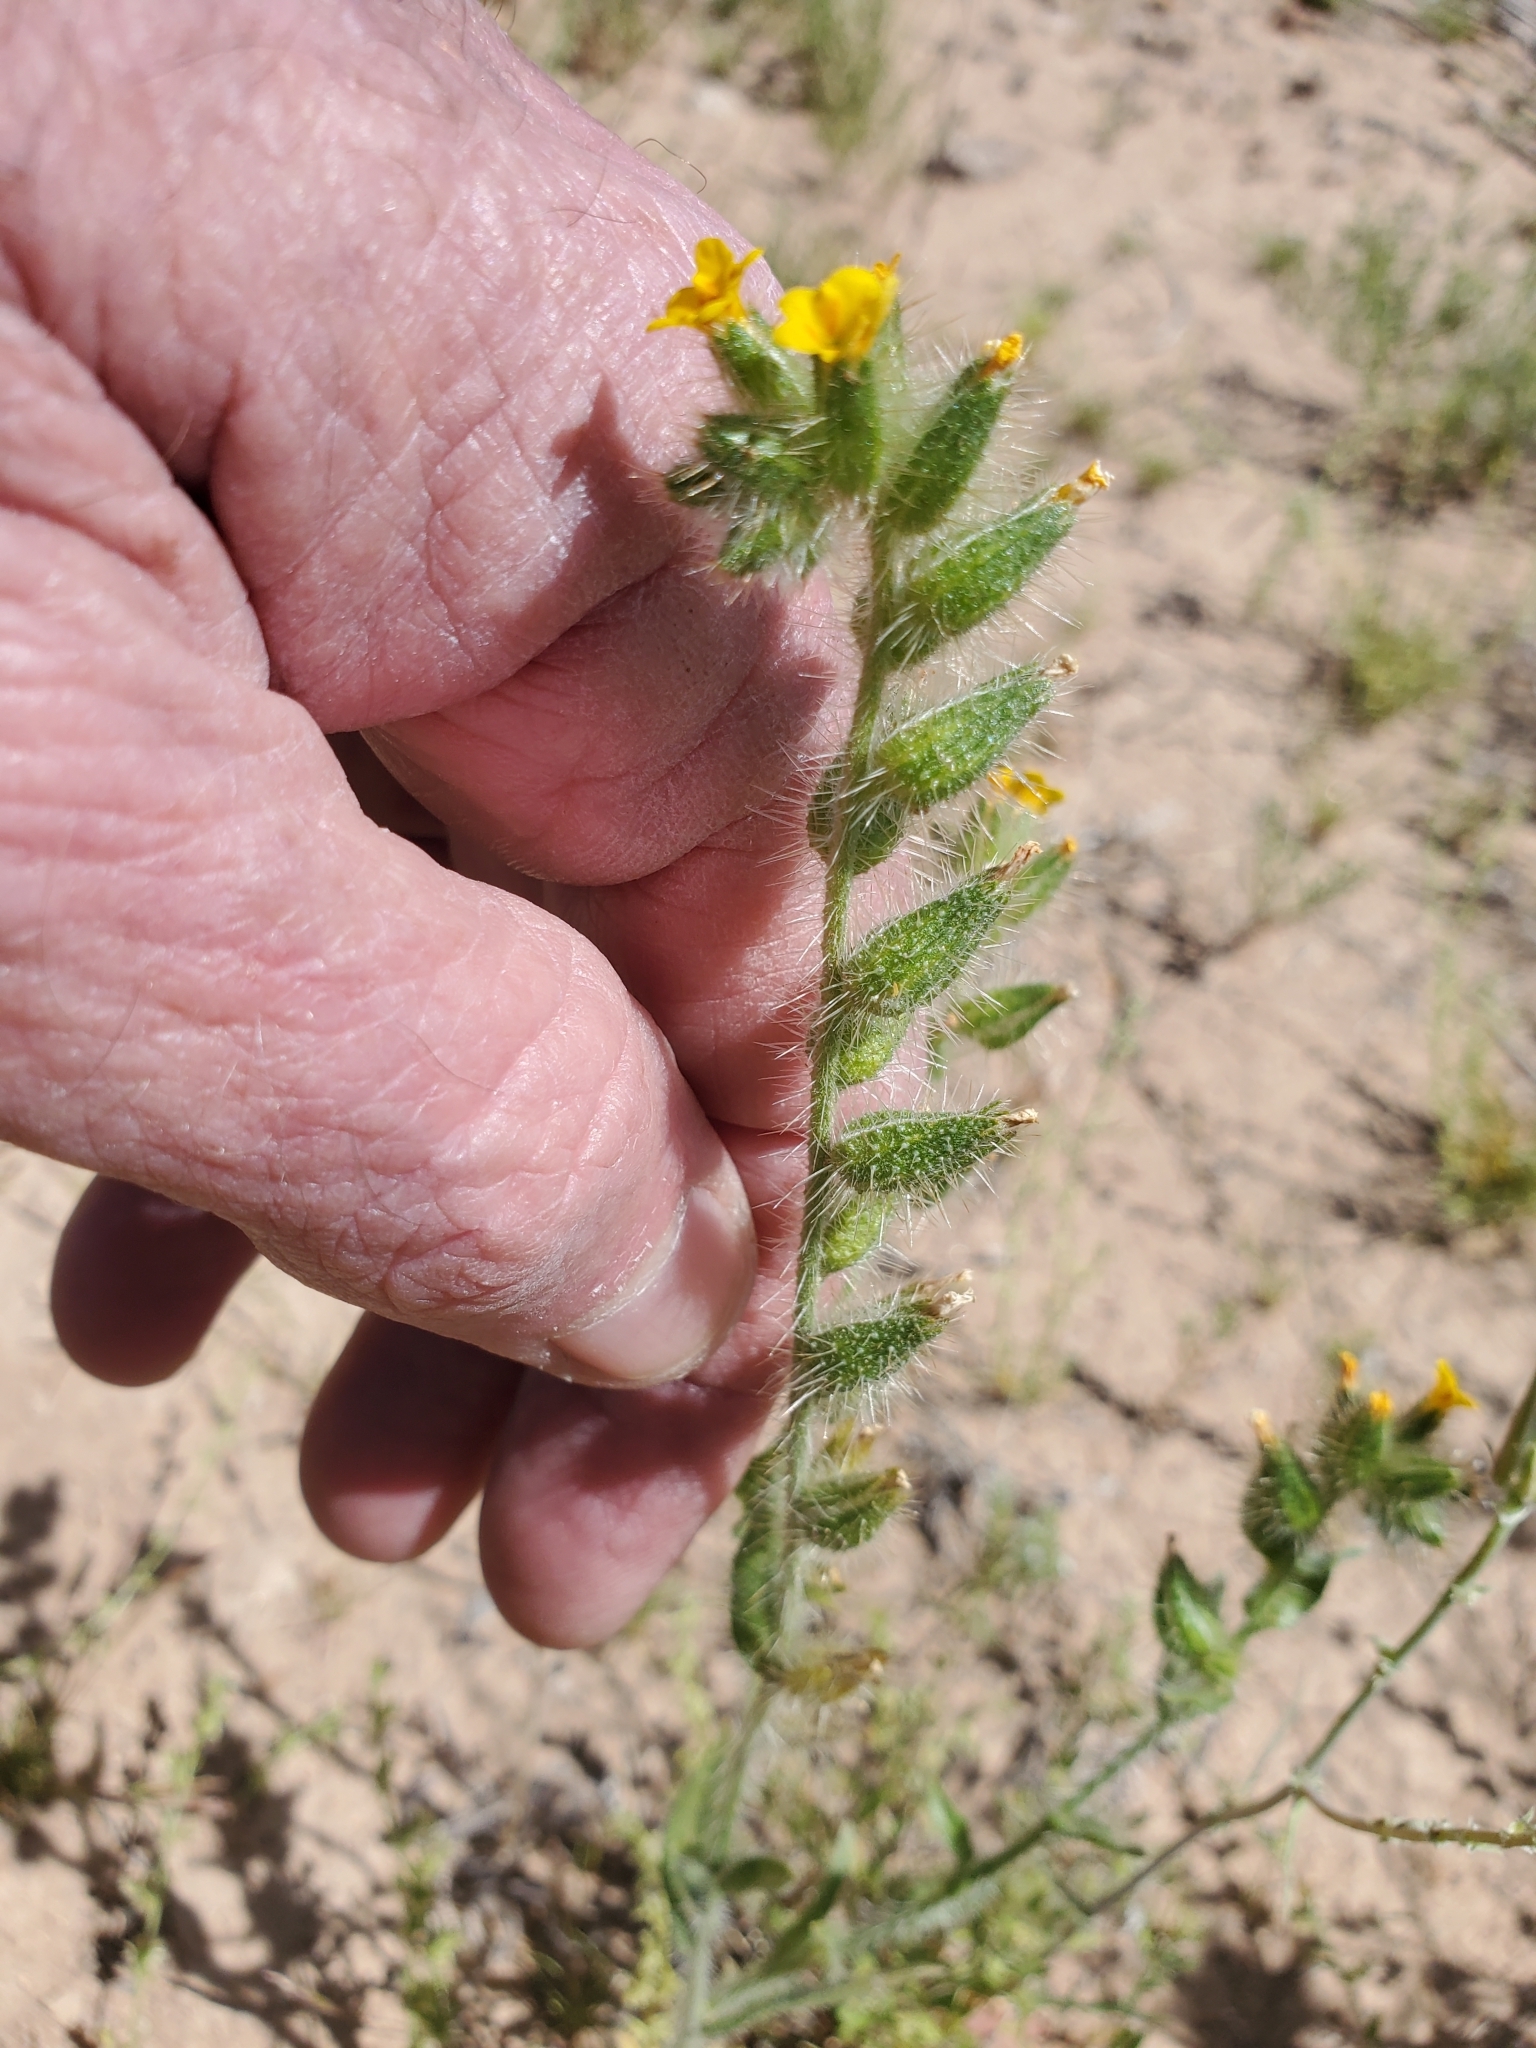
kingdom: Plantae
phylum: Tracheophyta
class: Magnoliopsida
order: Boraginales
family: Boraginaceae
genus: Amsinckia
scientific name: Amsinckia tessellata
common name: Tessellate fiddleneck
